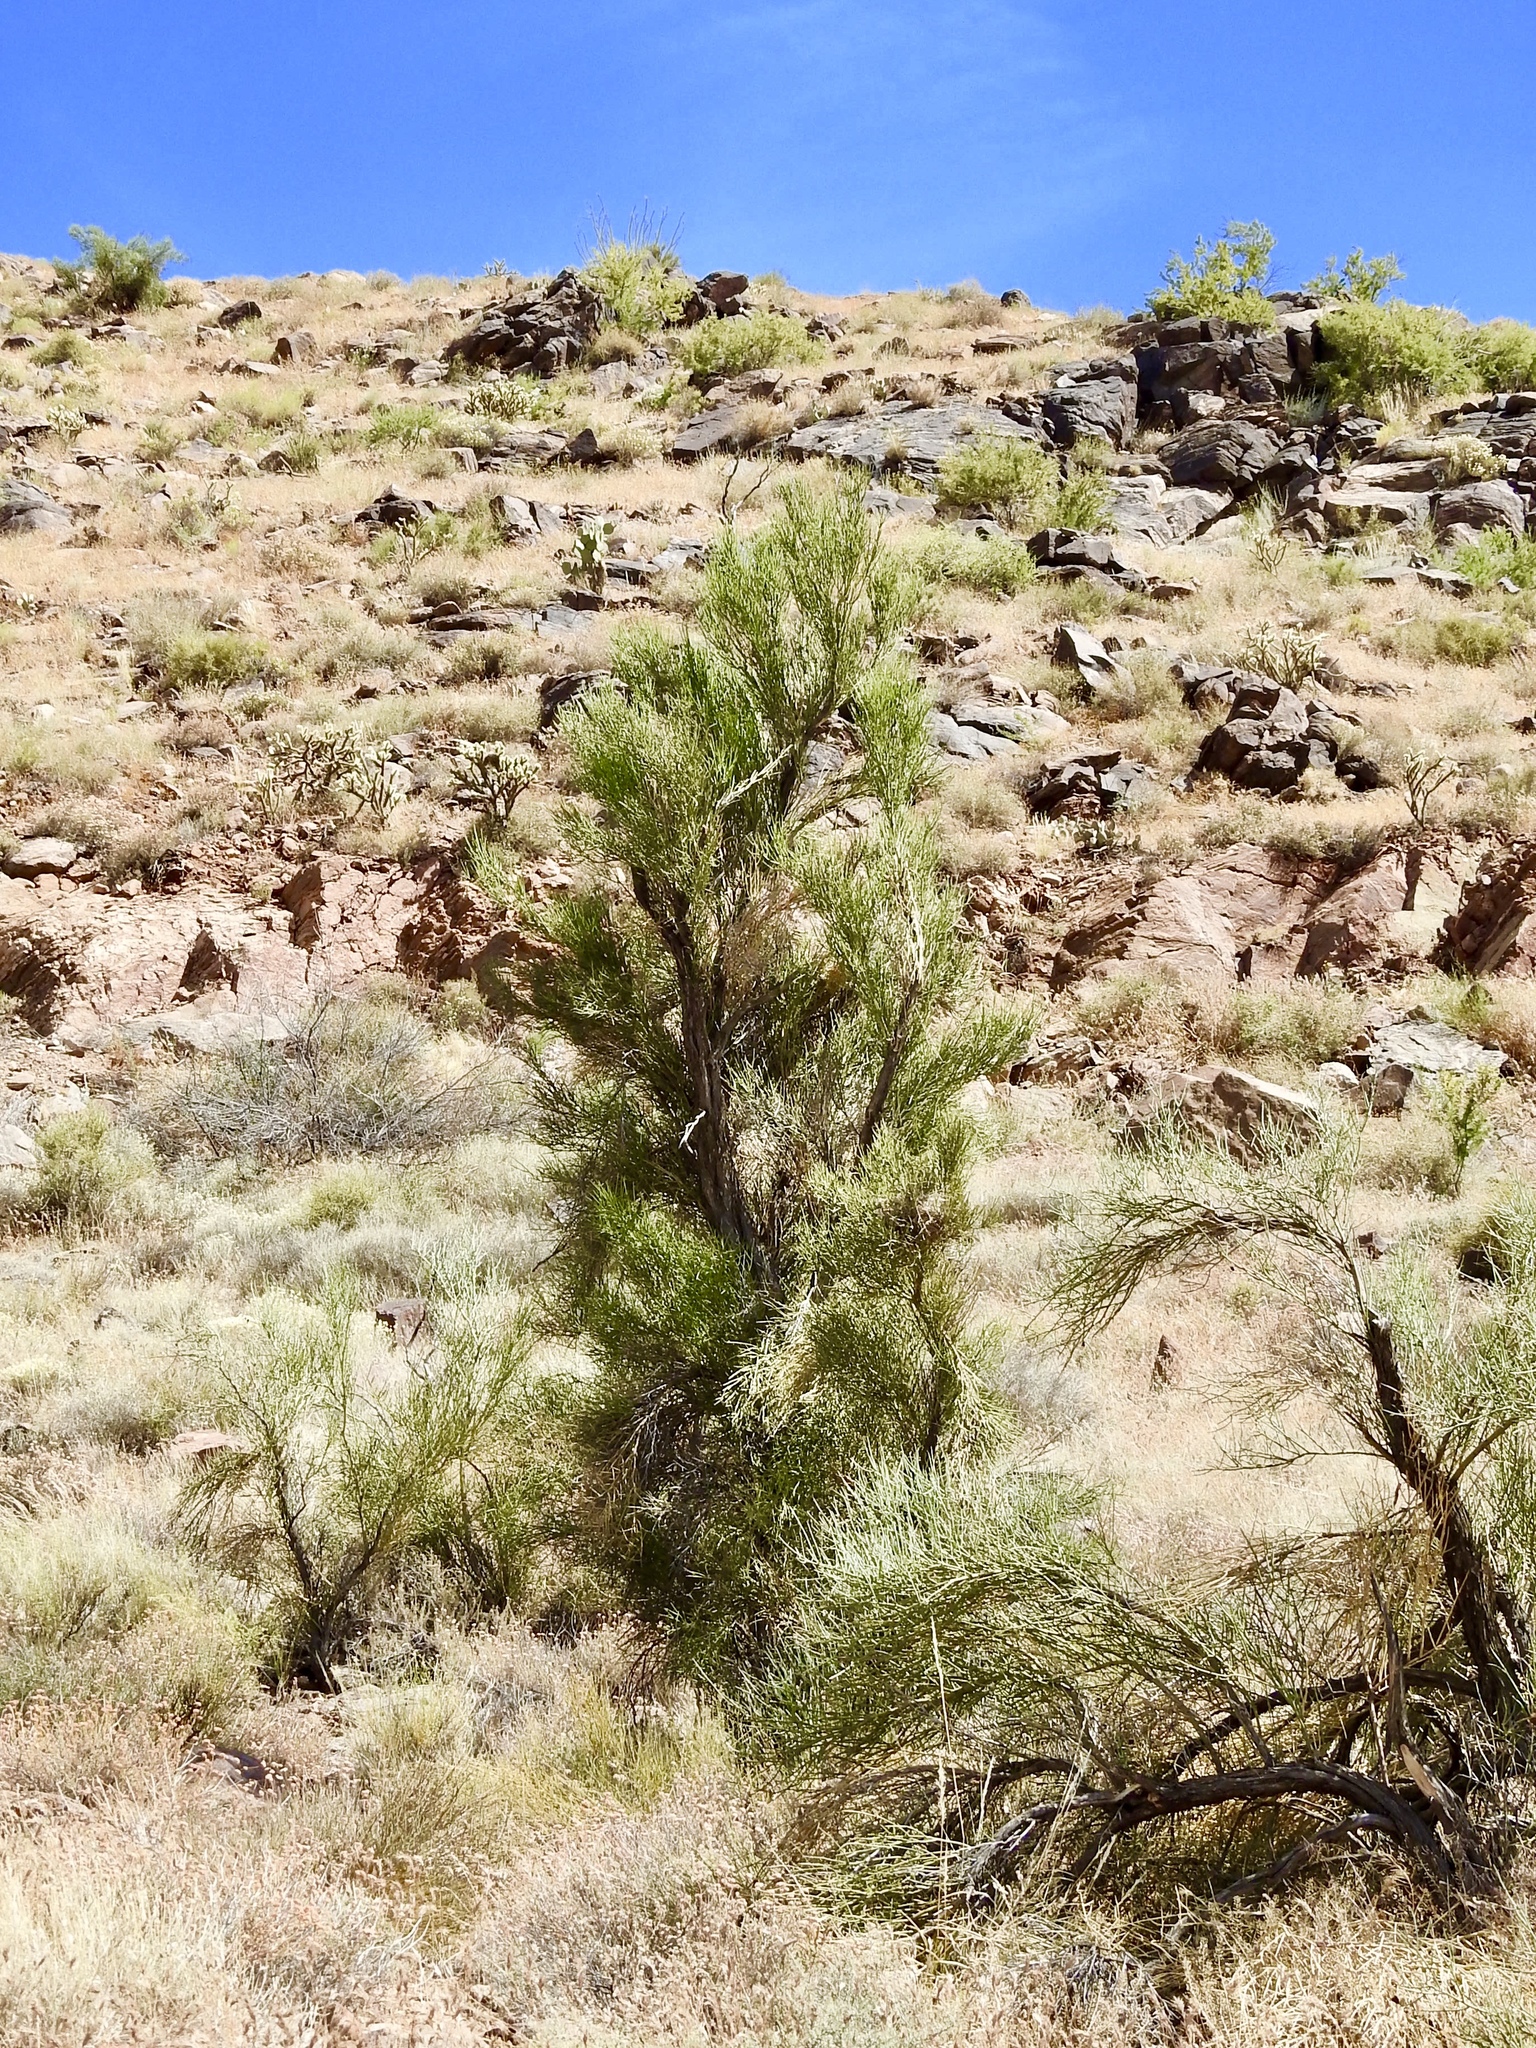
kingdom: Plantae
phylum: Tracheophyta
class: Magnoliopsida
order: Celastrales
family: Celastraceae
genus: Canotia
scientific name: Canotia holacantha
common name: Crucifixion thorns
